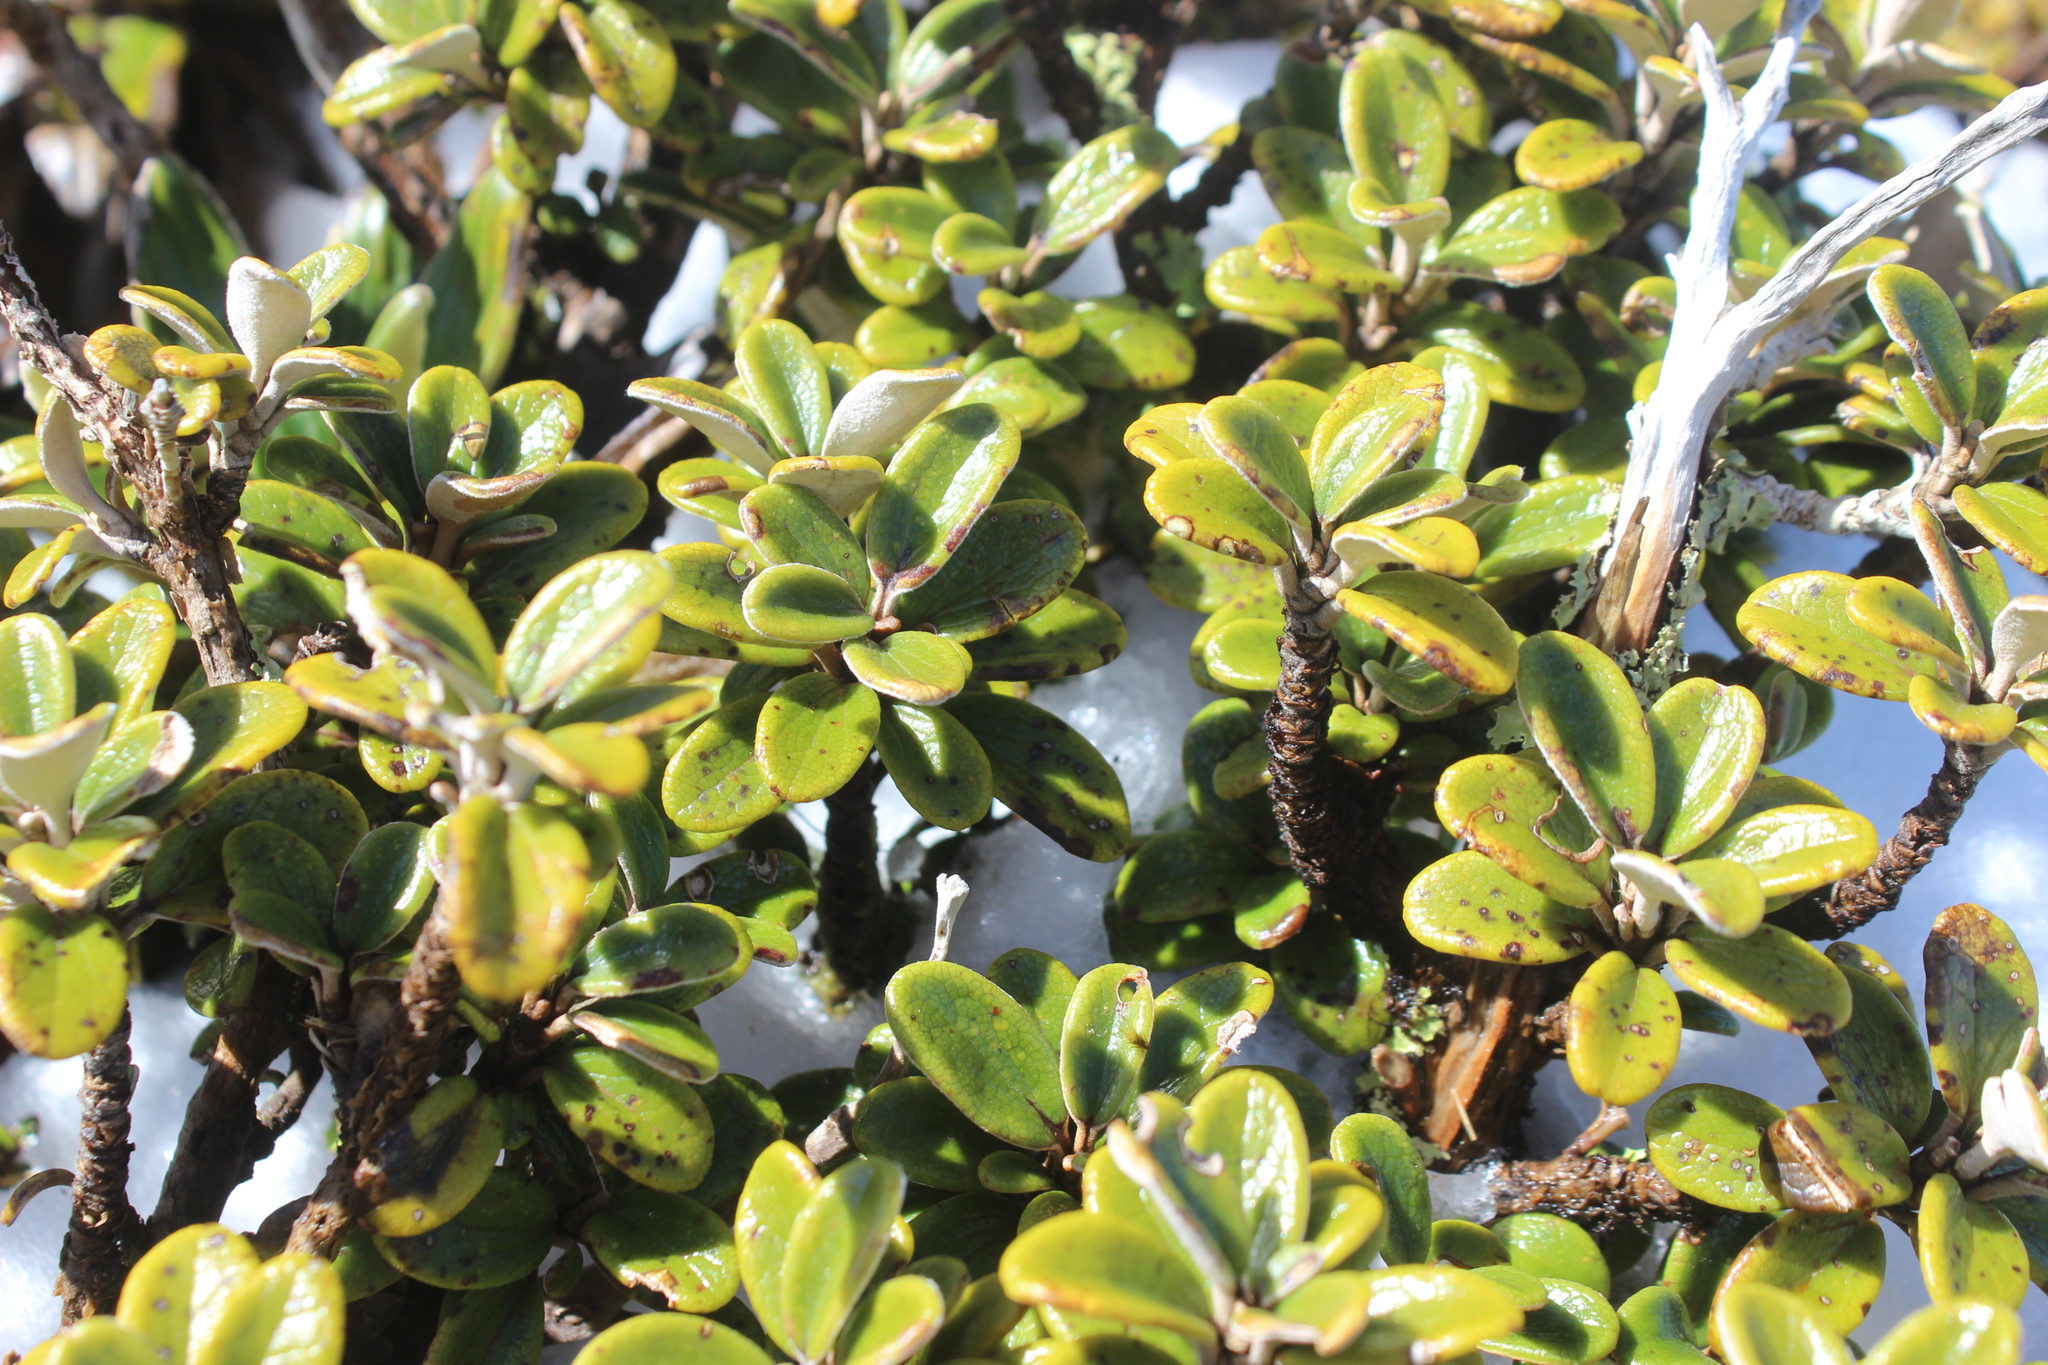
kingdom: Plantae
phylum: Tracheophyta
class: Magnoliopsida
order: Asterales
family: Asteraceae
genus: Brachyglottis
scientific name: Brachyglottis bidwillii
